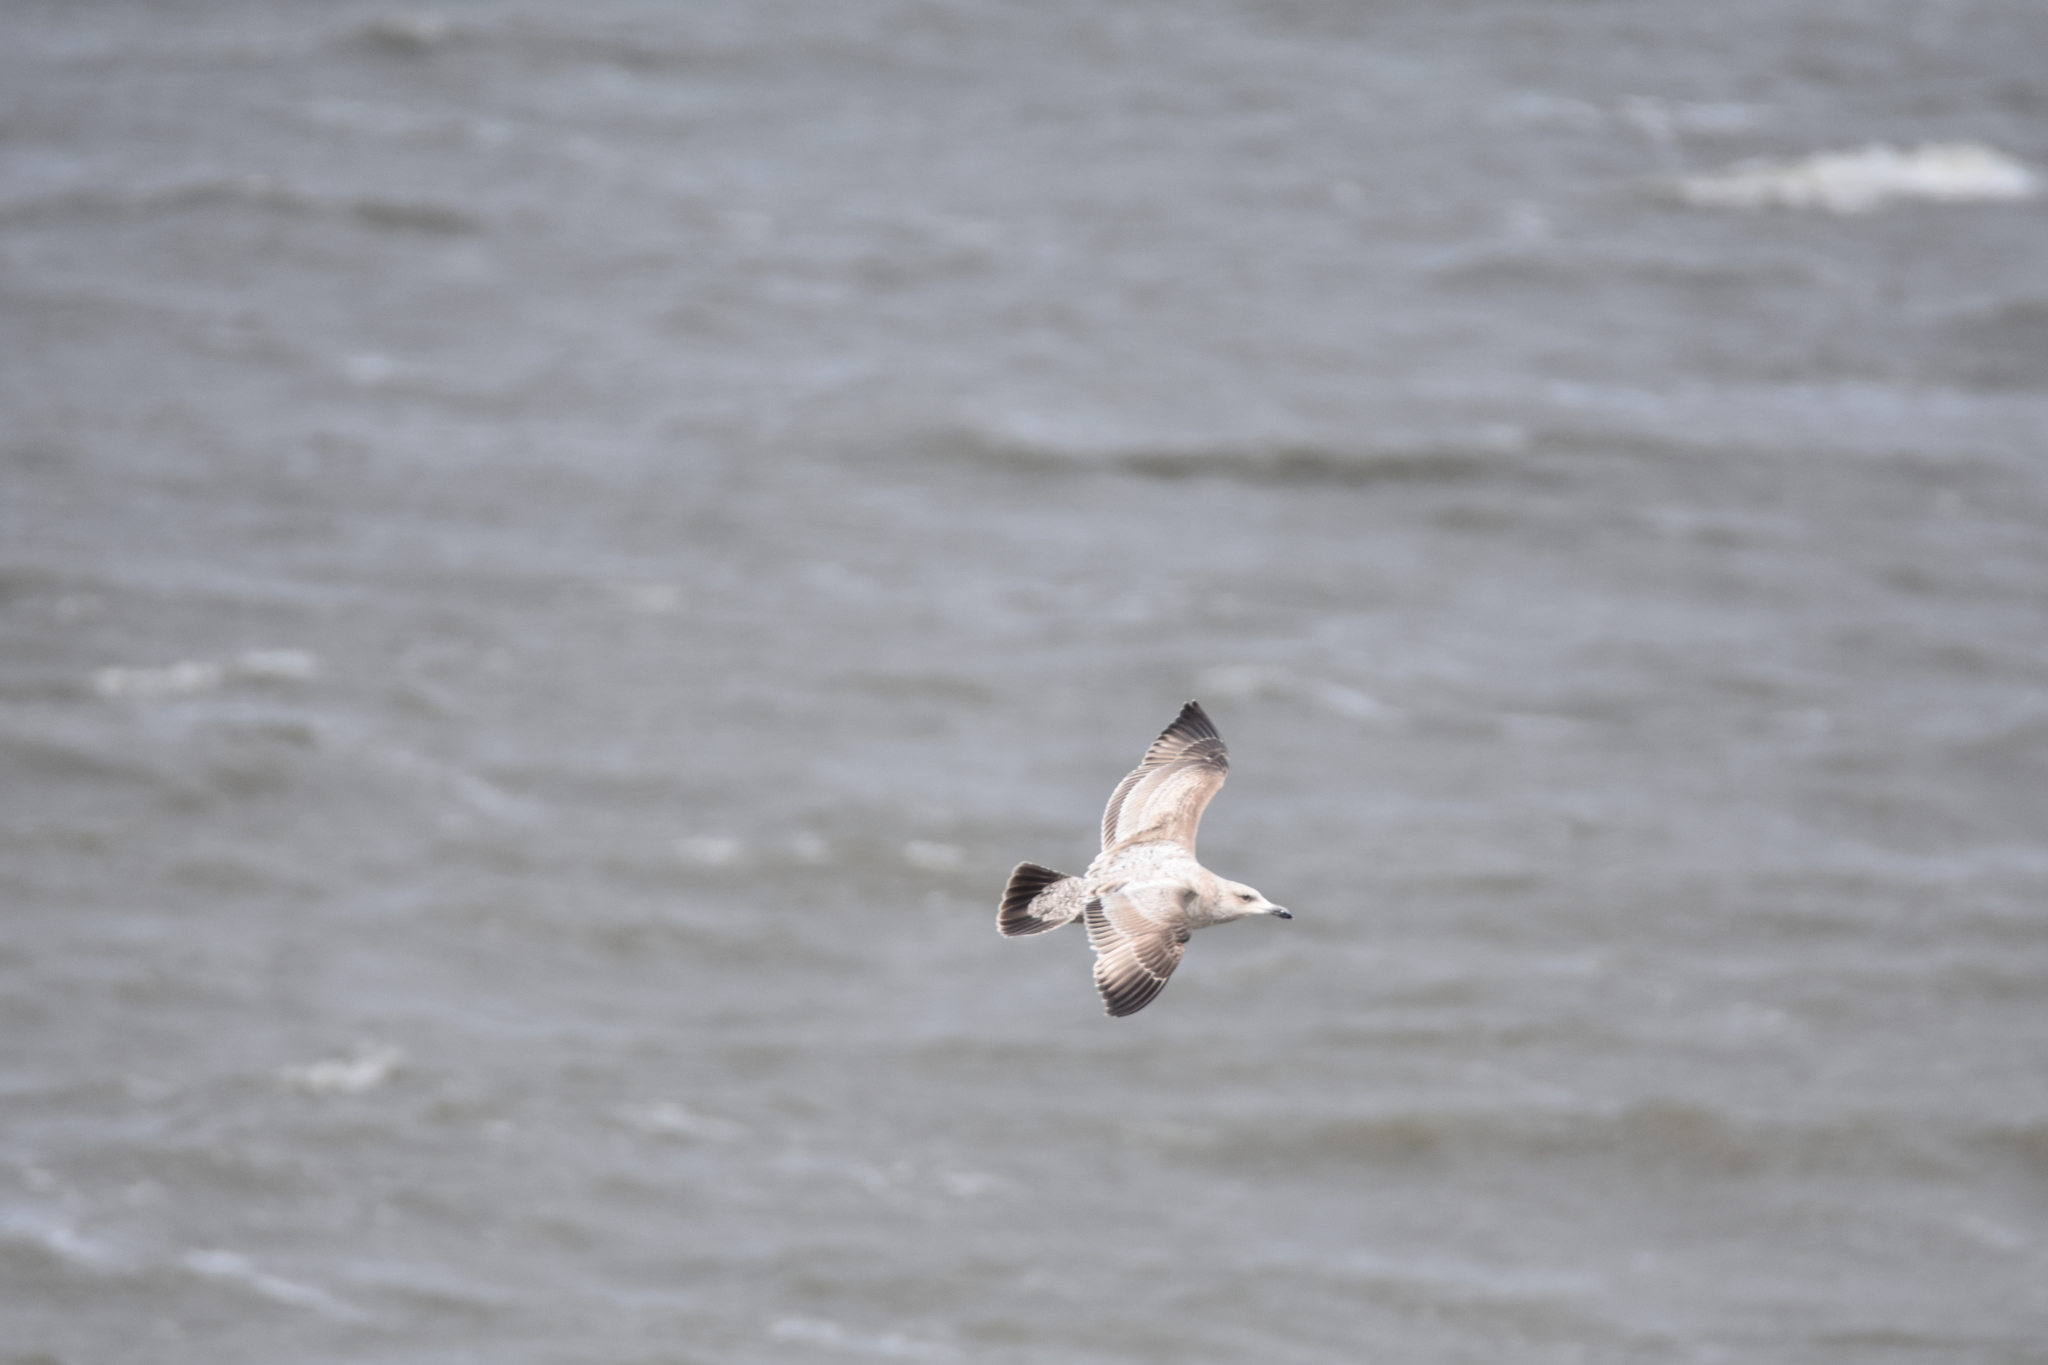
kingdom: Animalia
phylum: Chordata
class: Aves
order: Charadriiformes
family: Laridae
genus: Larus
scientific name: Larus argentatus
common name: Herring gull
